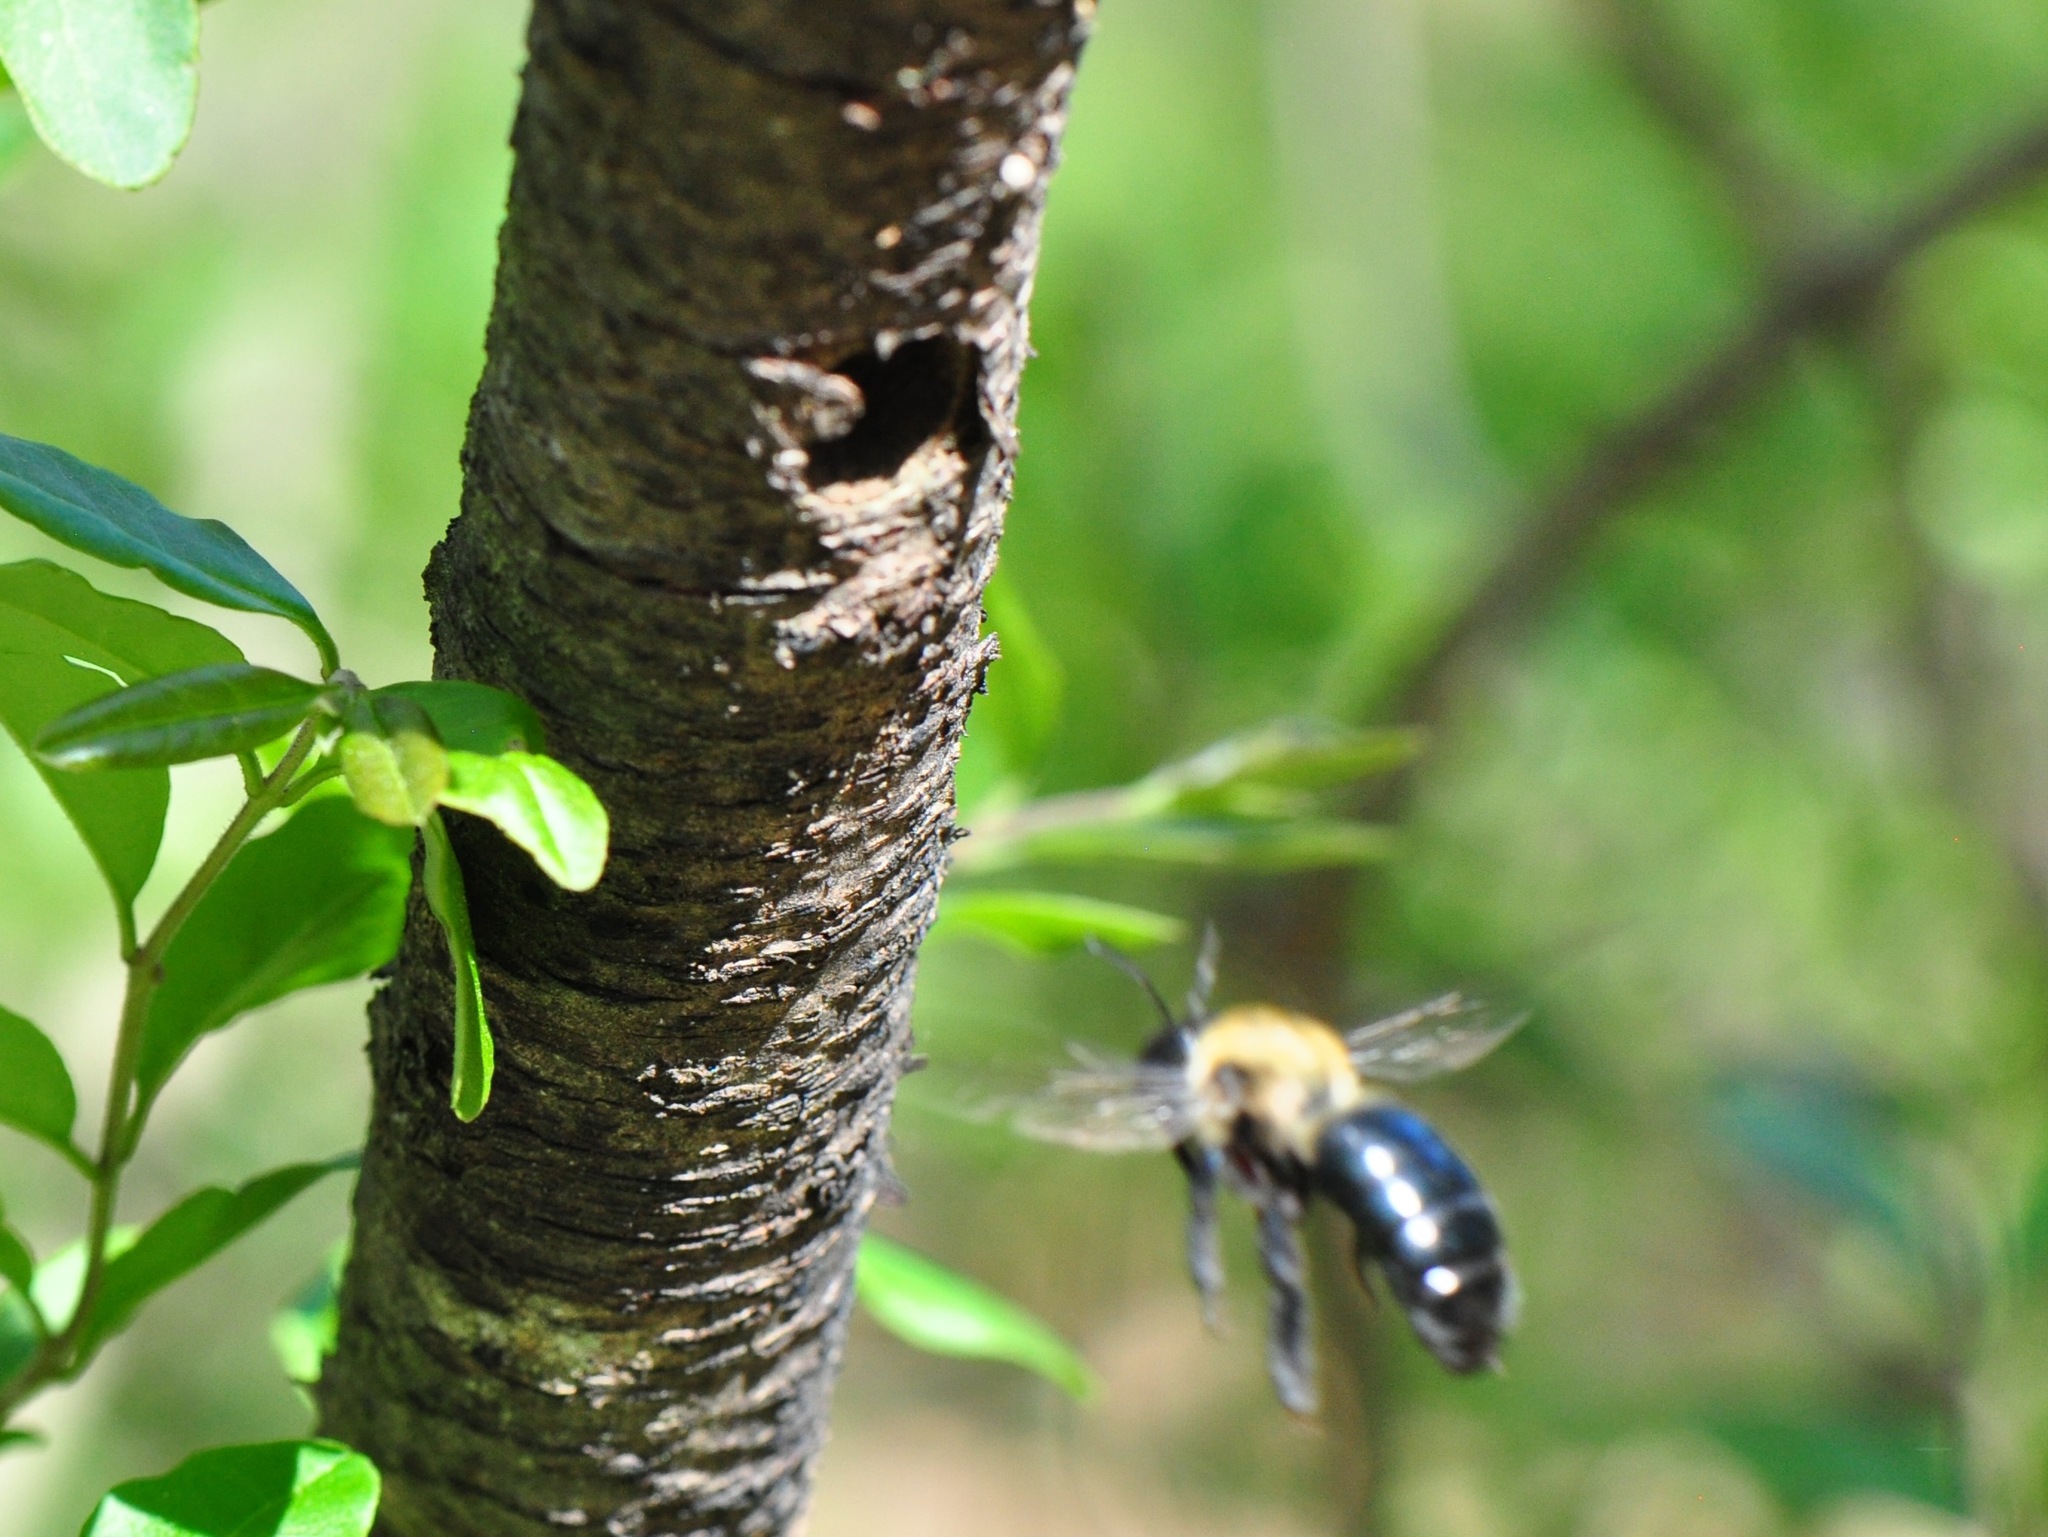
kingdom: Animalia
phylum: Arthropoda
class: Insecta
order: Hymenoptera
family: Apidae
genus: Xylocopa
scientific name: Xylocopa virginica
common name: Carpenter bee
